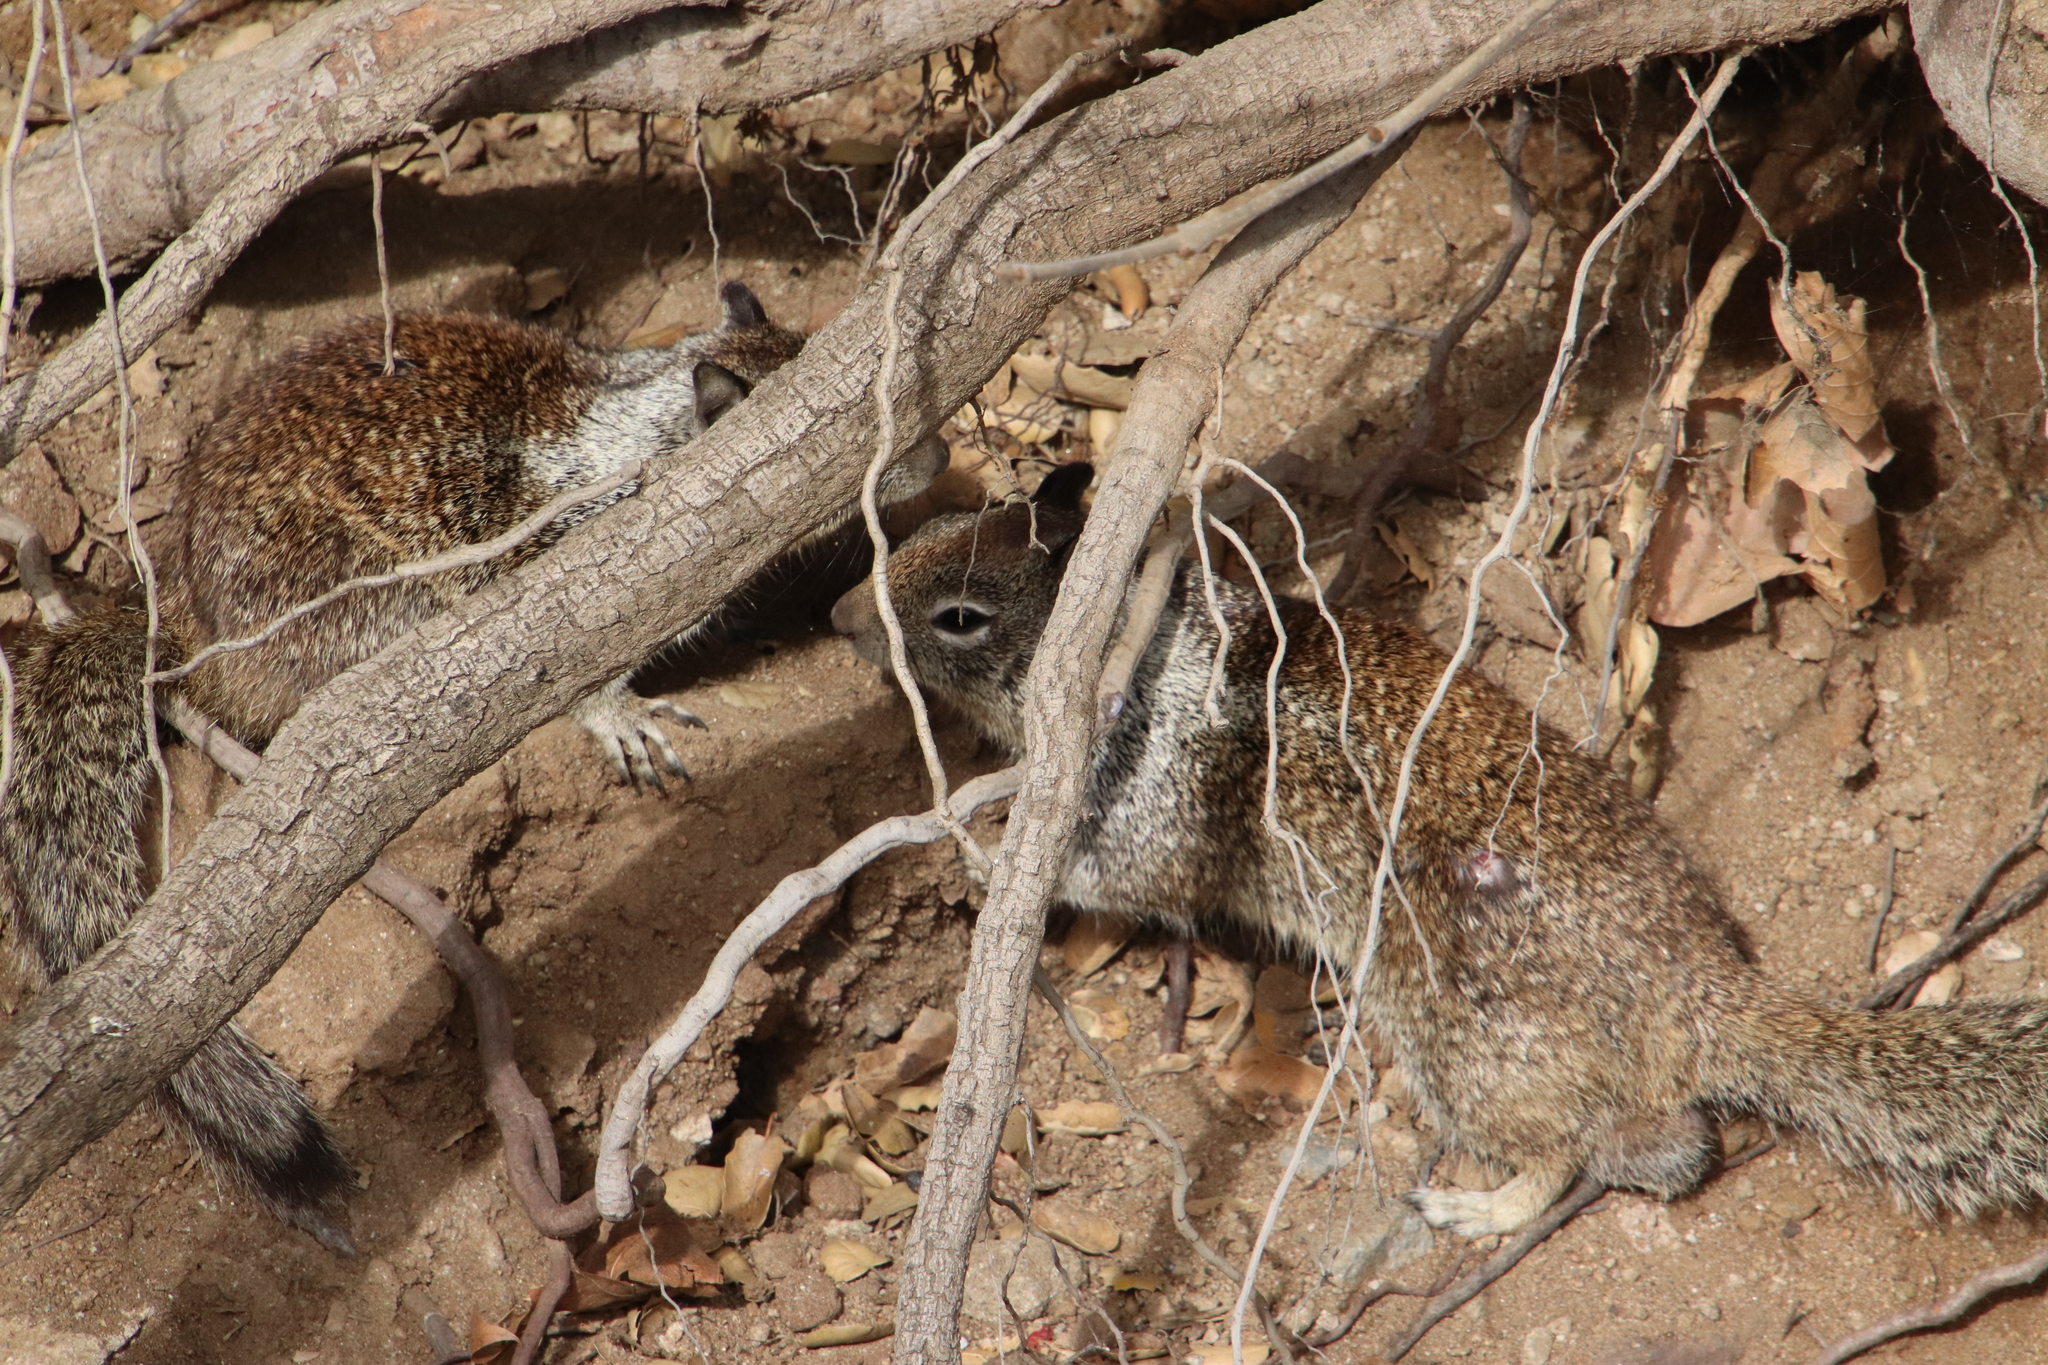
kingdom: Animalia
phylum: Chordata
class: Mammalia
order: Rodentia
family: Sciuridae
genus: Otospermophilus
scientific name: Otospermophilus beecheyi
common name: California ground squirrel
